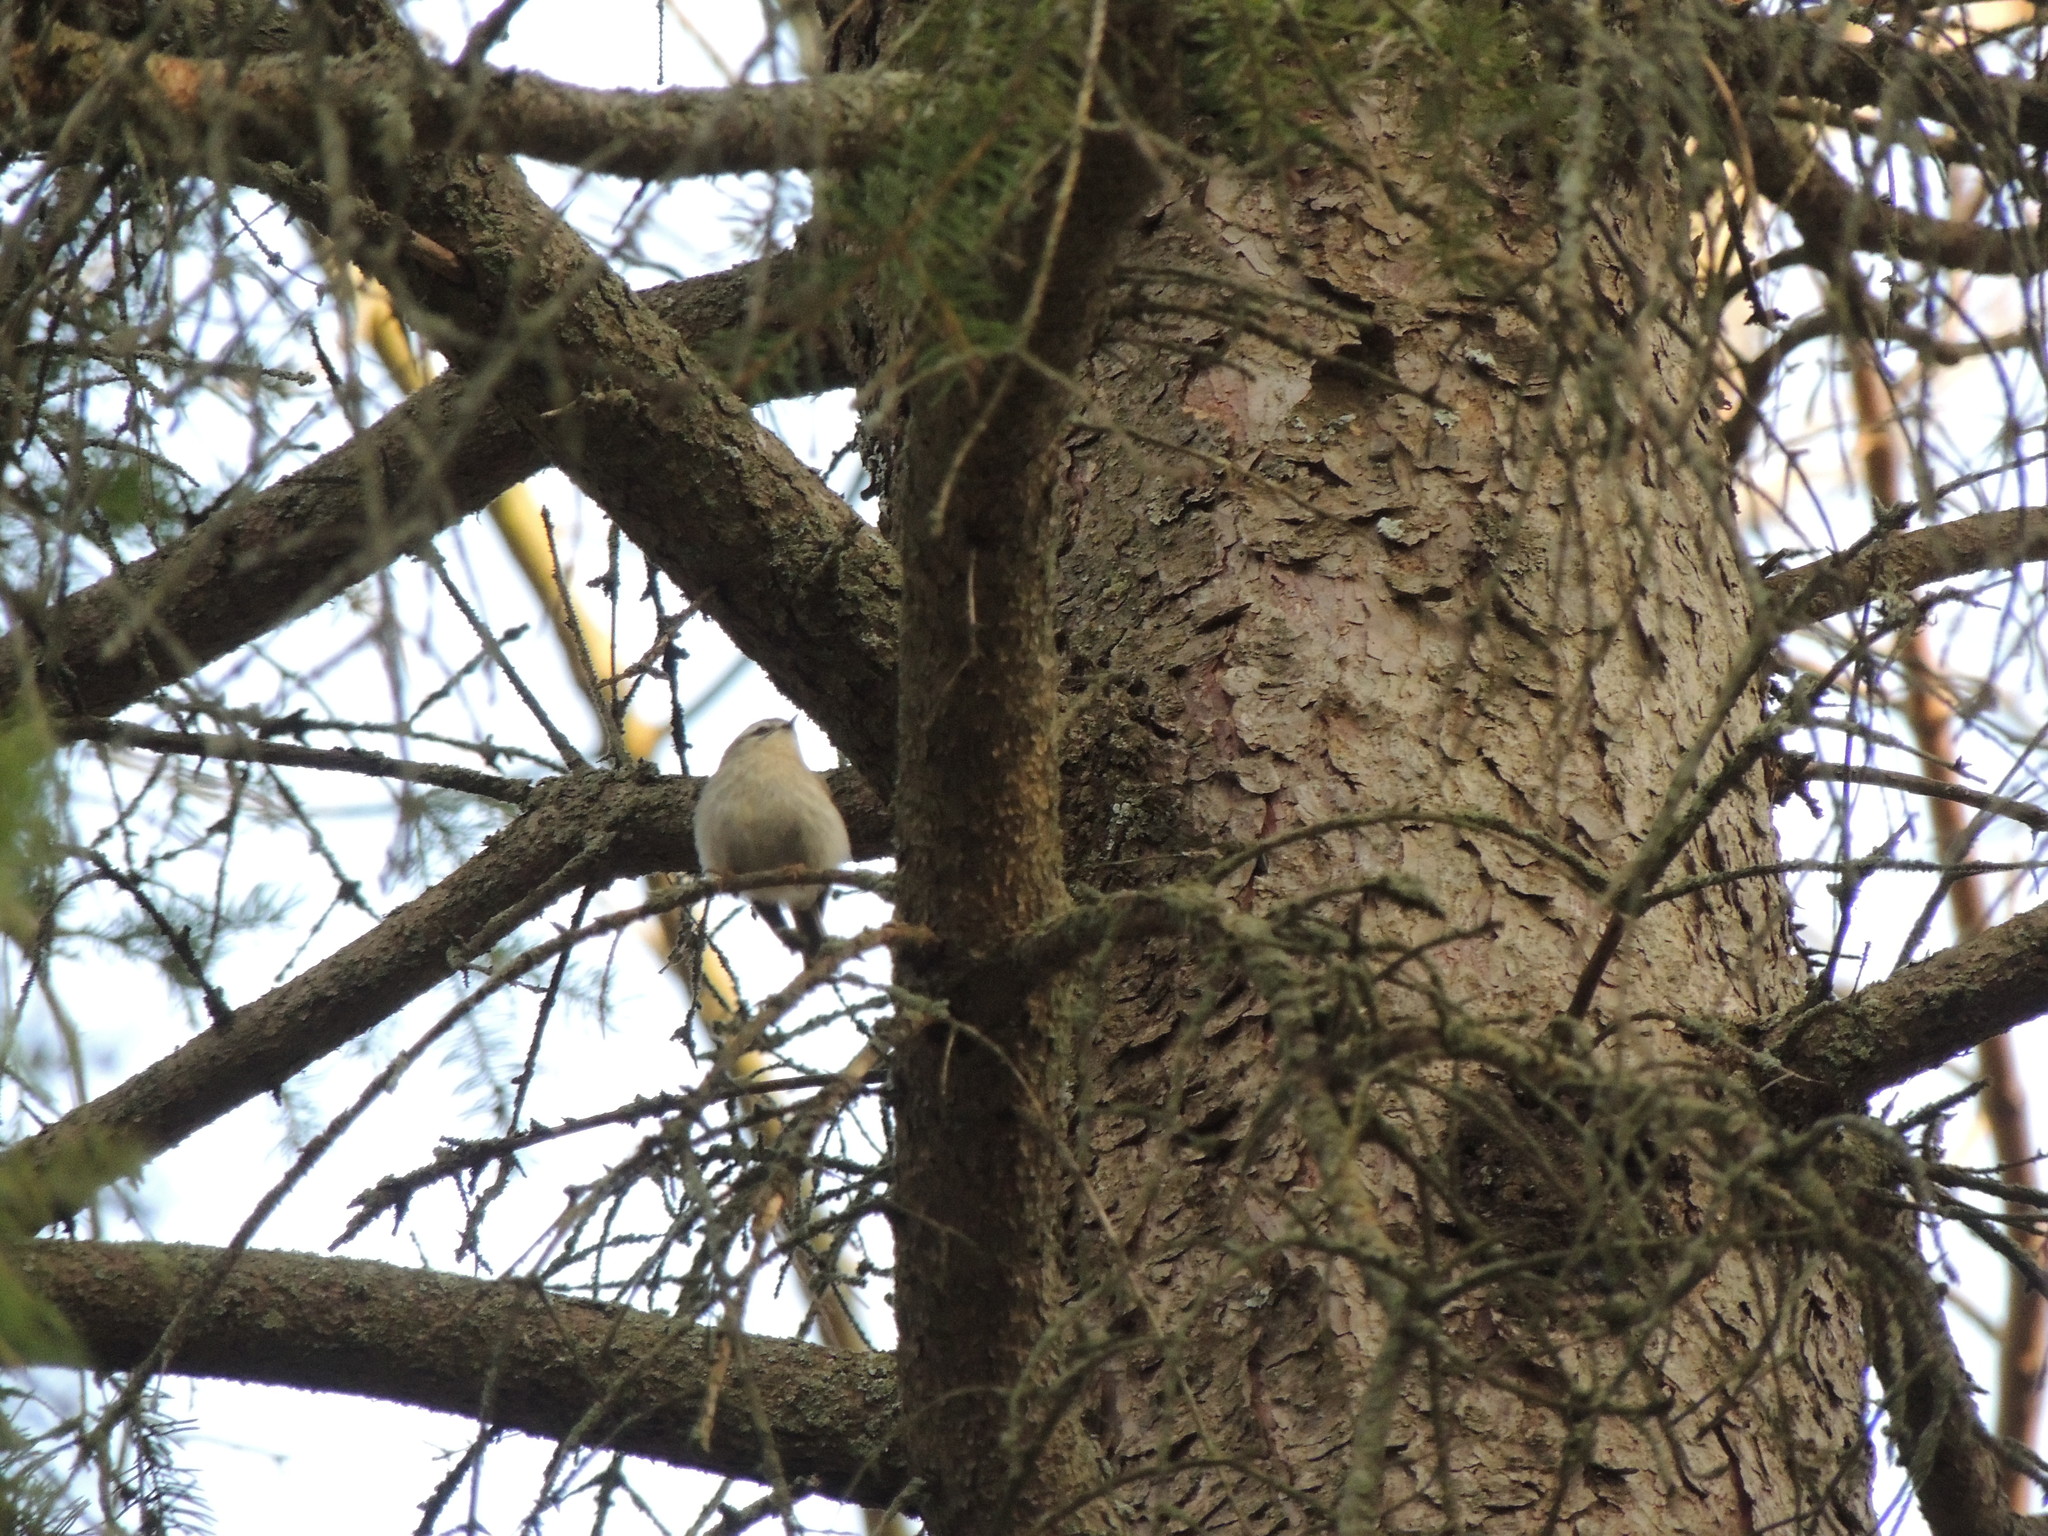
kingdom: Animalia
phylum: Chordata
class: Aves
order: Passeriformes
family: Regulidae
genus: Regulus
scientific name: Regulus satrapa
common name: Golden-crowned kinglet
